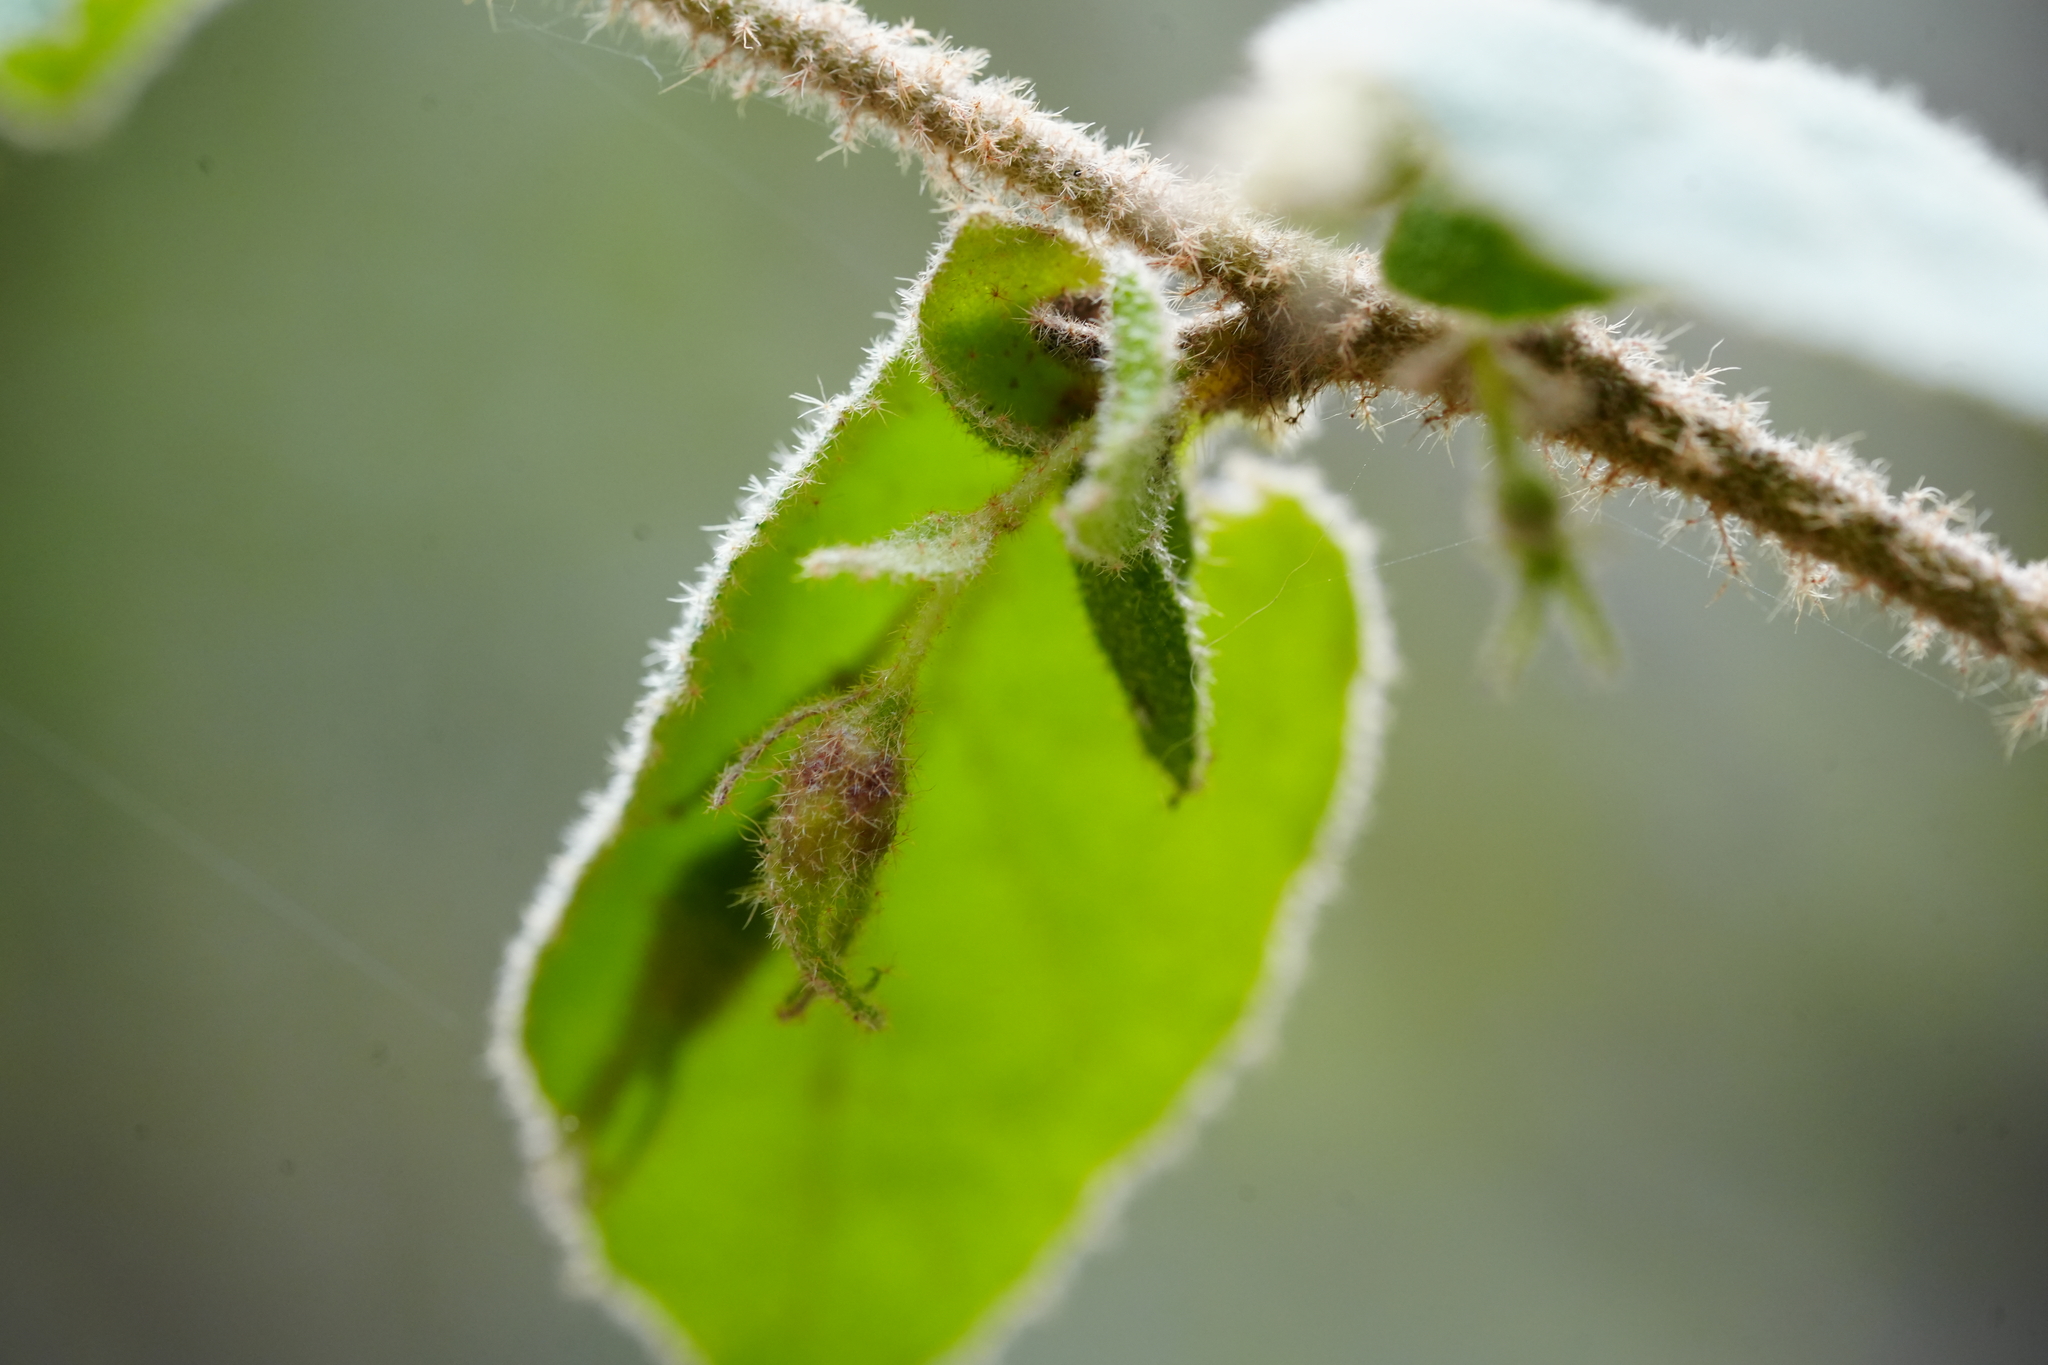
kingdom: Plantae
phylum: Tracheophyta
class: Magnoliopsida
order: Sapindales
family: Rutaceae
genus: Correa
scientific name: Correa aemula
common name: Hairy correa
